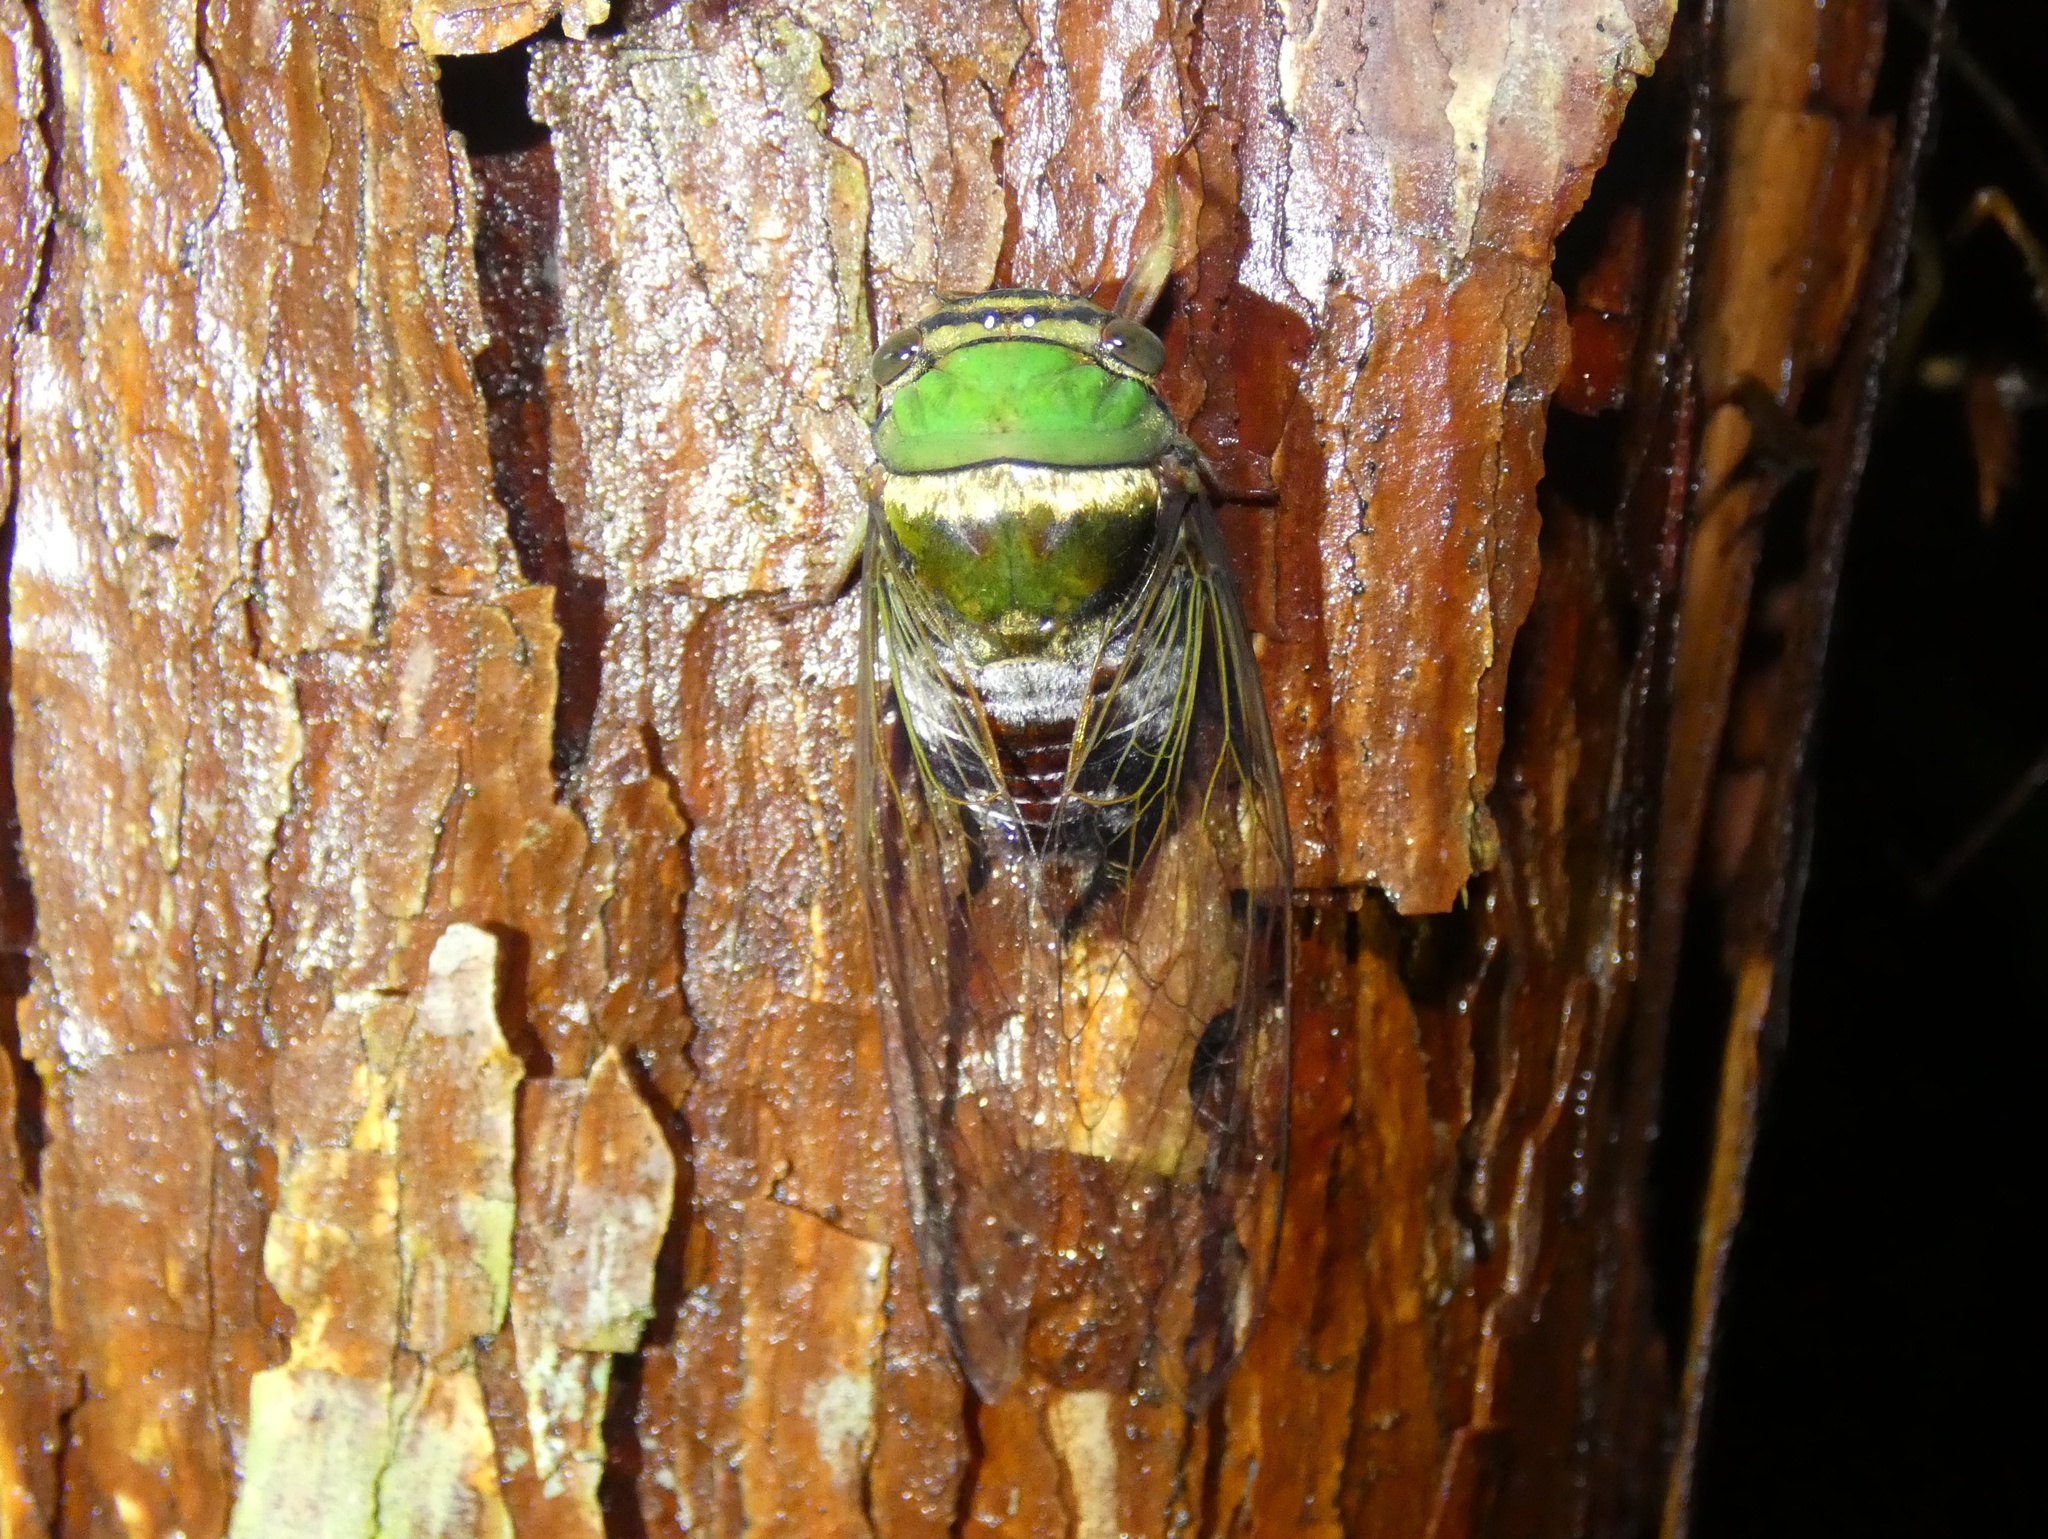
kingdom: Animalia
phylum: Arthropoda
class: Insecta
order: Hemiptera
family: Cicadidae
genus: Guyalna
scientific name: Guyalna bicolor
